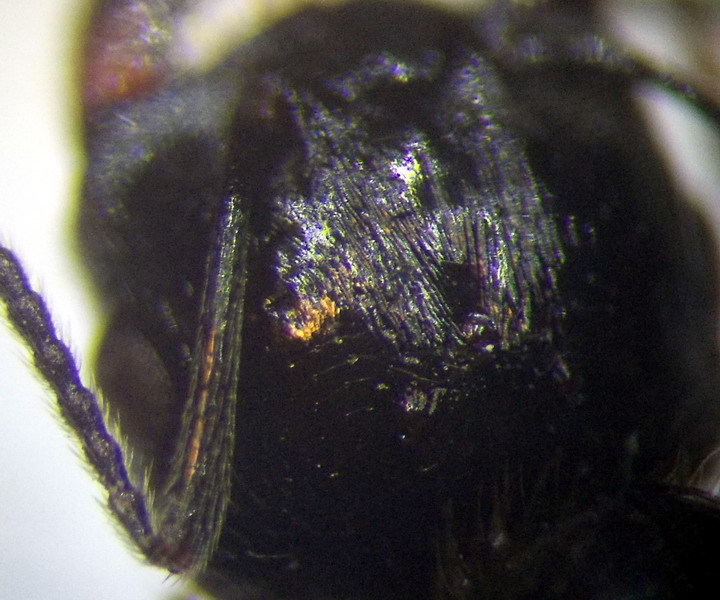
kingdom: Animalia
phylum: Arthropoda
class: Insecta
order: Hymenoptera
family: Formicidae
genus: Messor
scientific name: Messor structor
